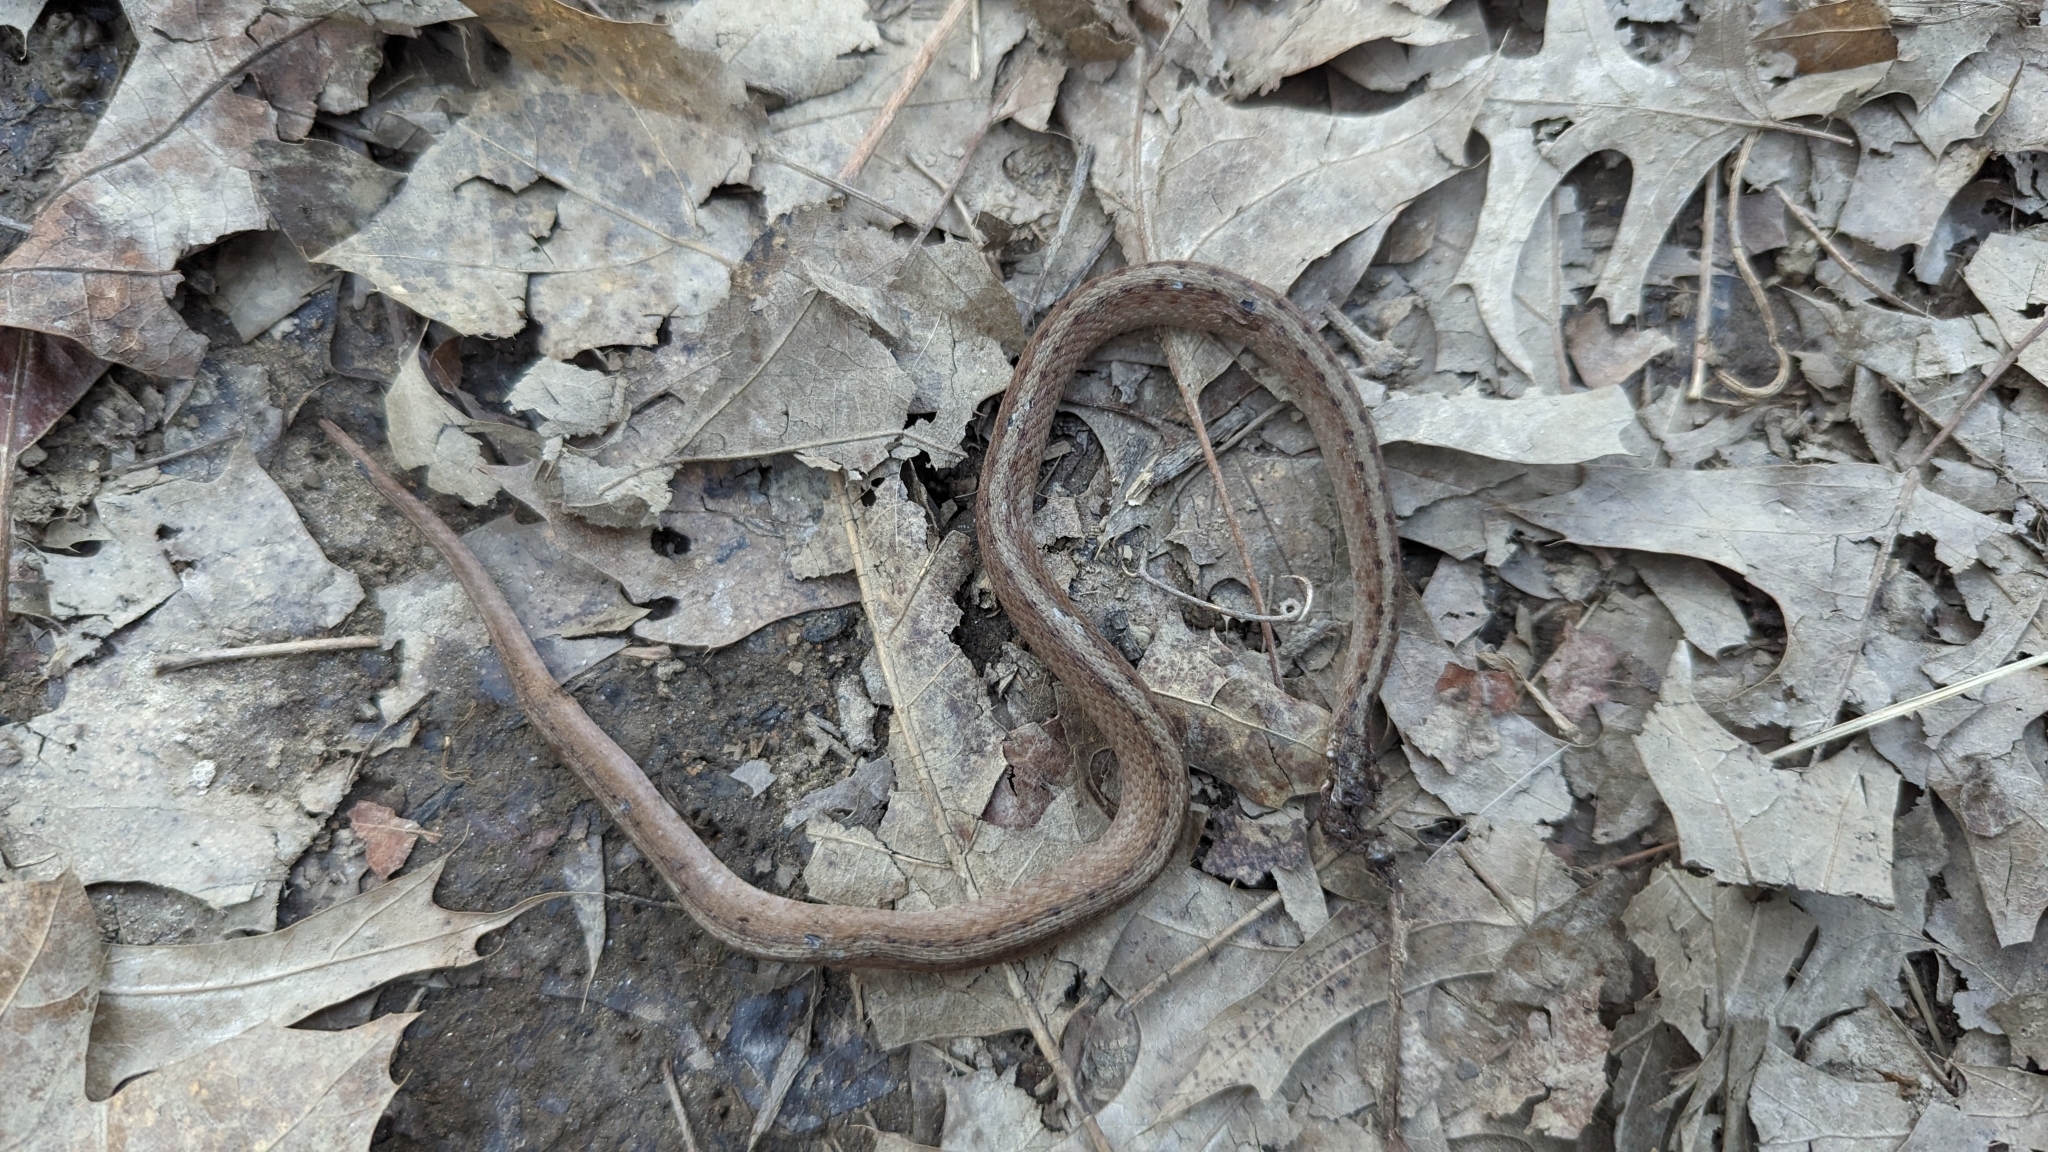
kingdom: Animalia
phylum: Chordata
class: Squamata
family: Colubridae
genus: Storeria
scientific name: Storeria dekayi
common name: (dekay’s) brown snake
